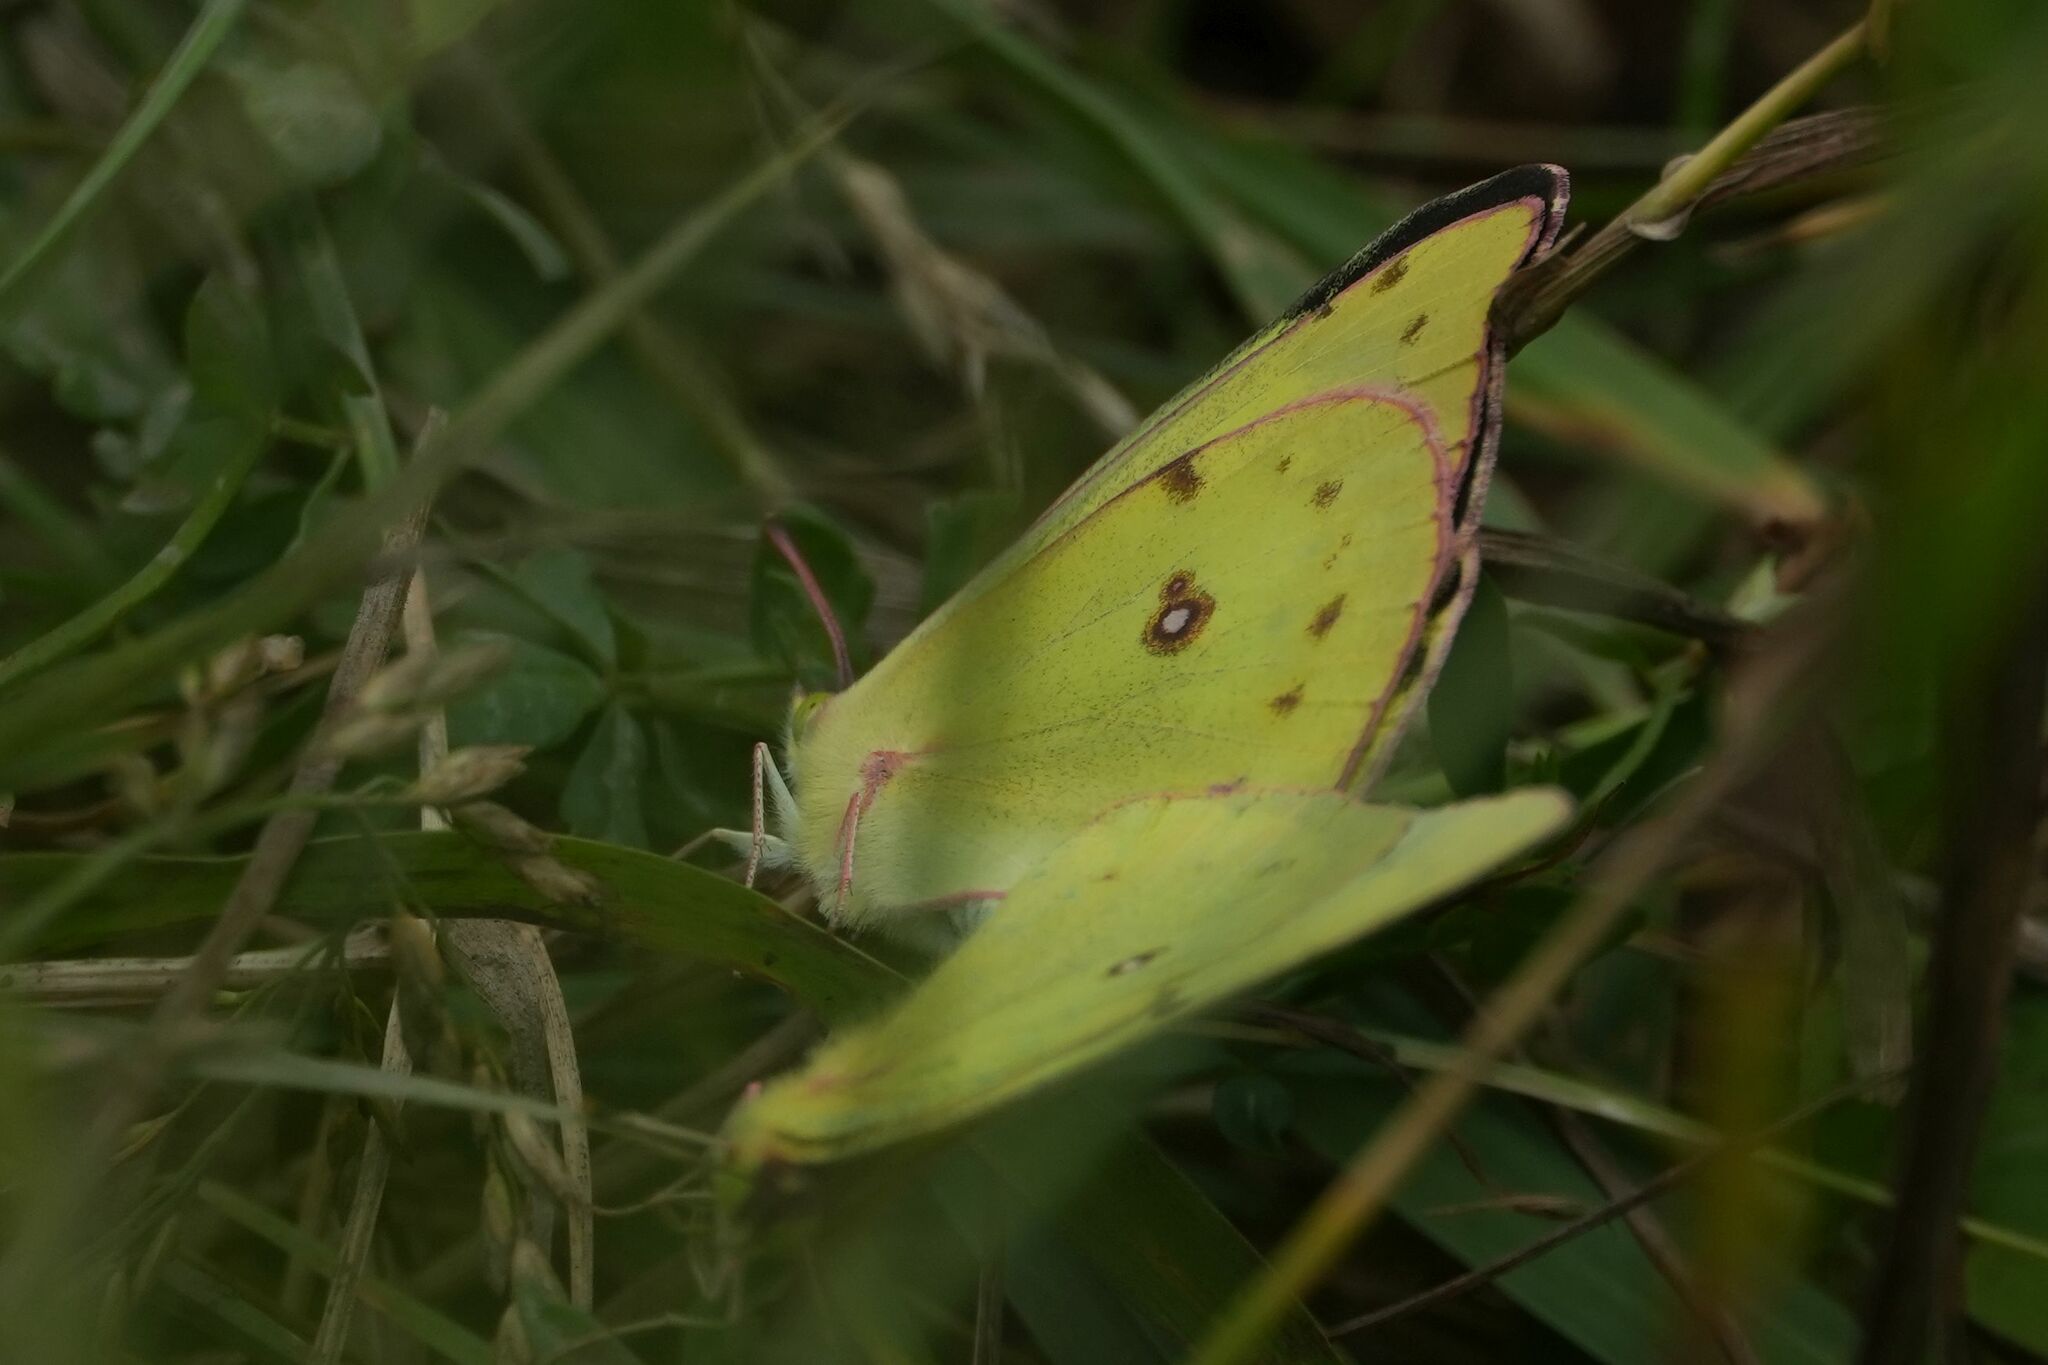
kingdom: Animalia
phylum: Arthropoda
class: Insecta
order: Lepidoptera
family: Pieridae
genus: Colias
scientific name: Colias philodice
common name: Clouded sulphur
